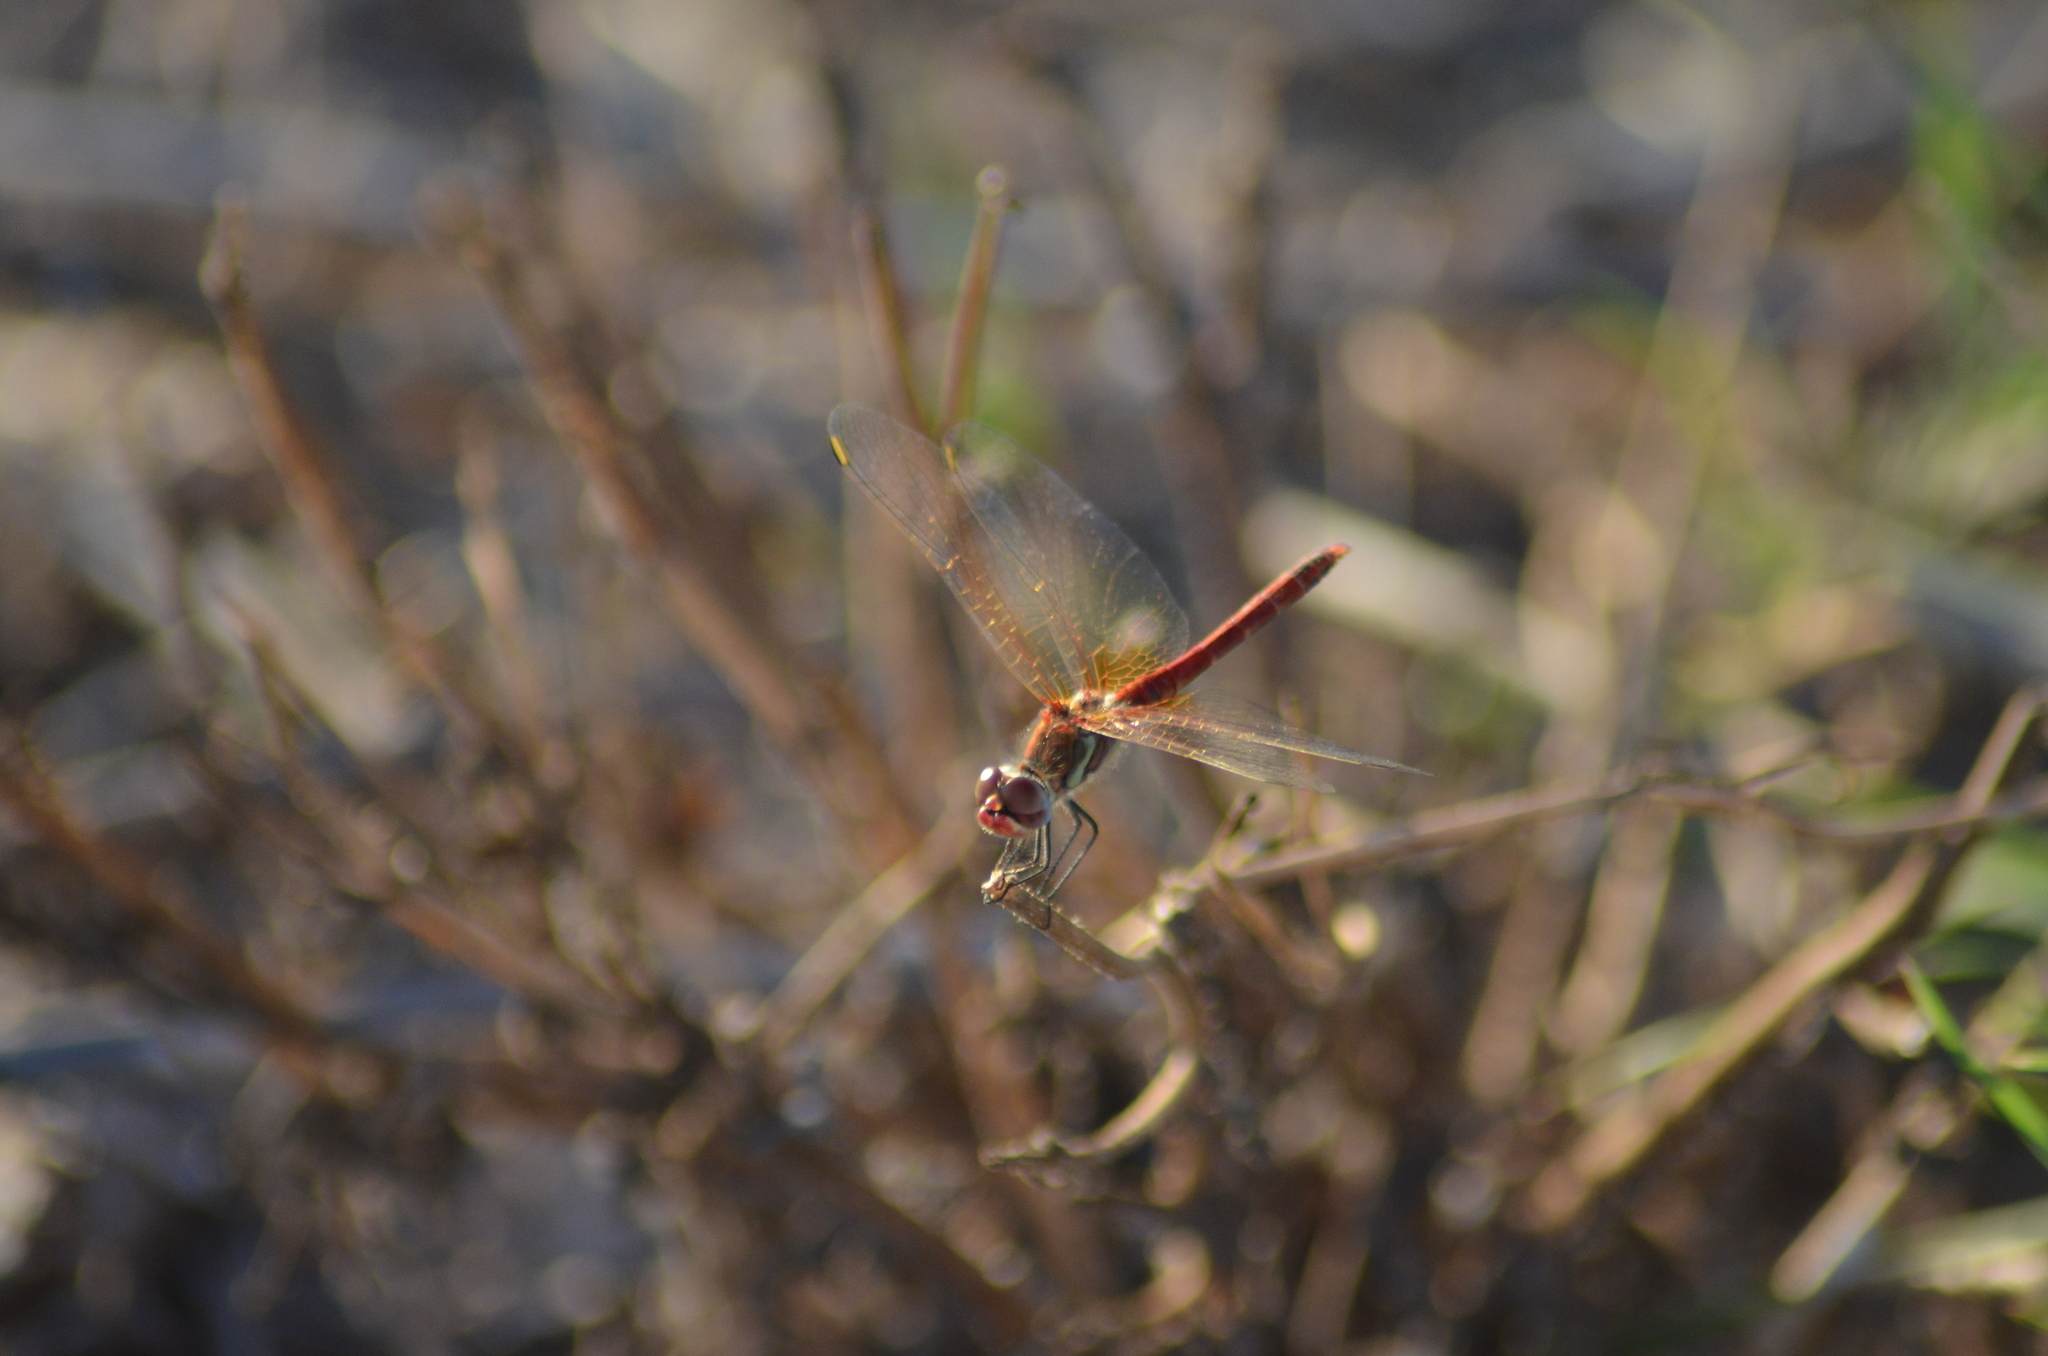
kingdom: Animalia
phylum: Arthropoda
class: Insecta
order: Odonata
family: Libellulidae
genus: Sympetrum
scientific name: Sympetrum fonscolombii
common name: Red-veined darter
